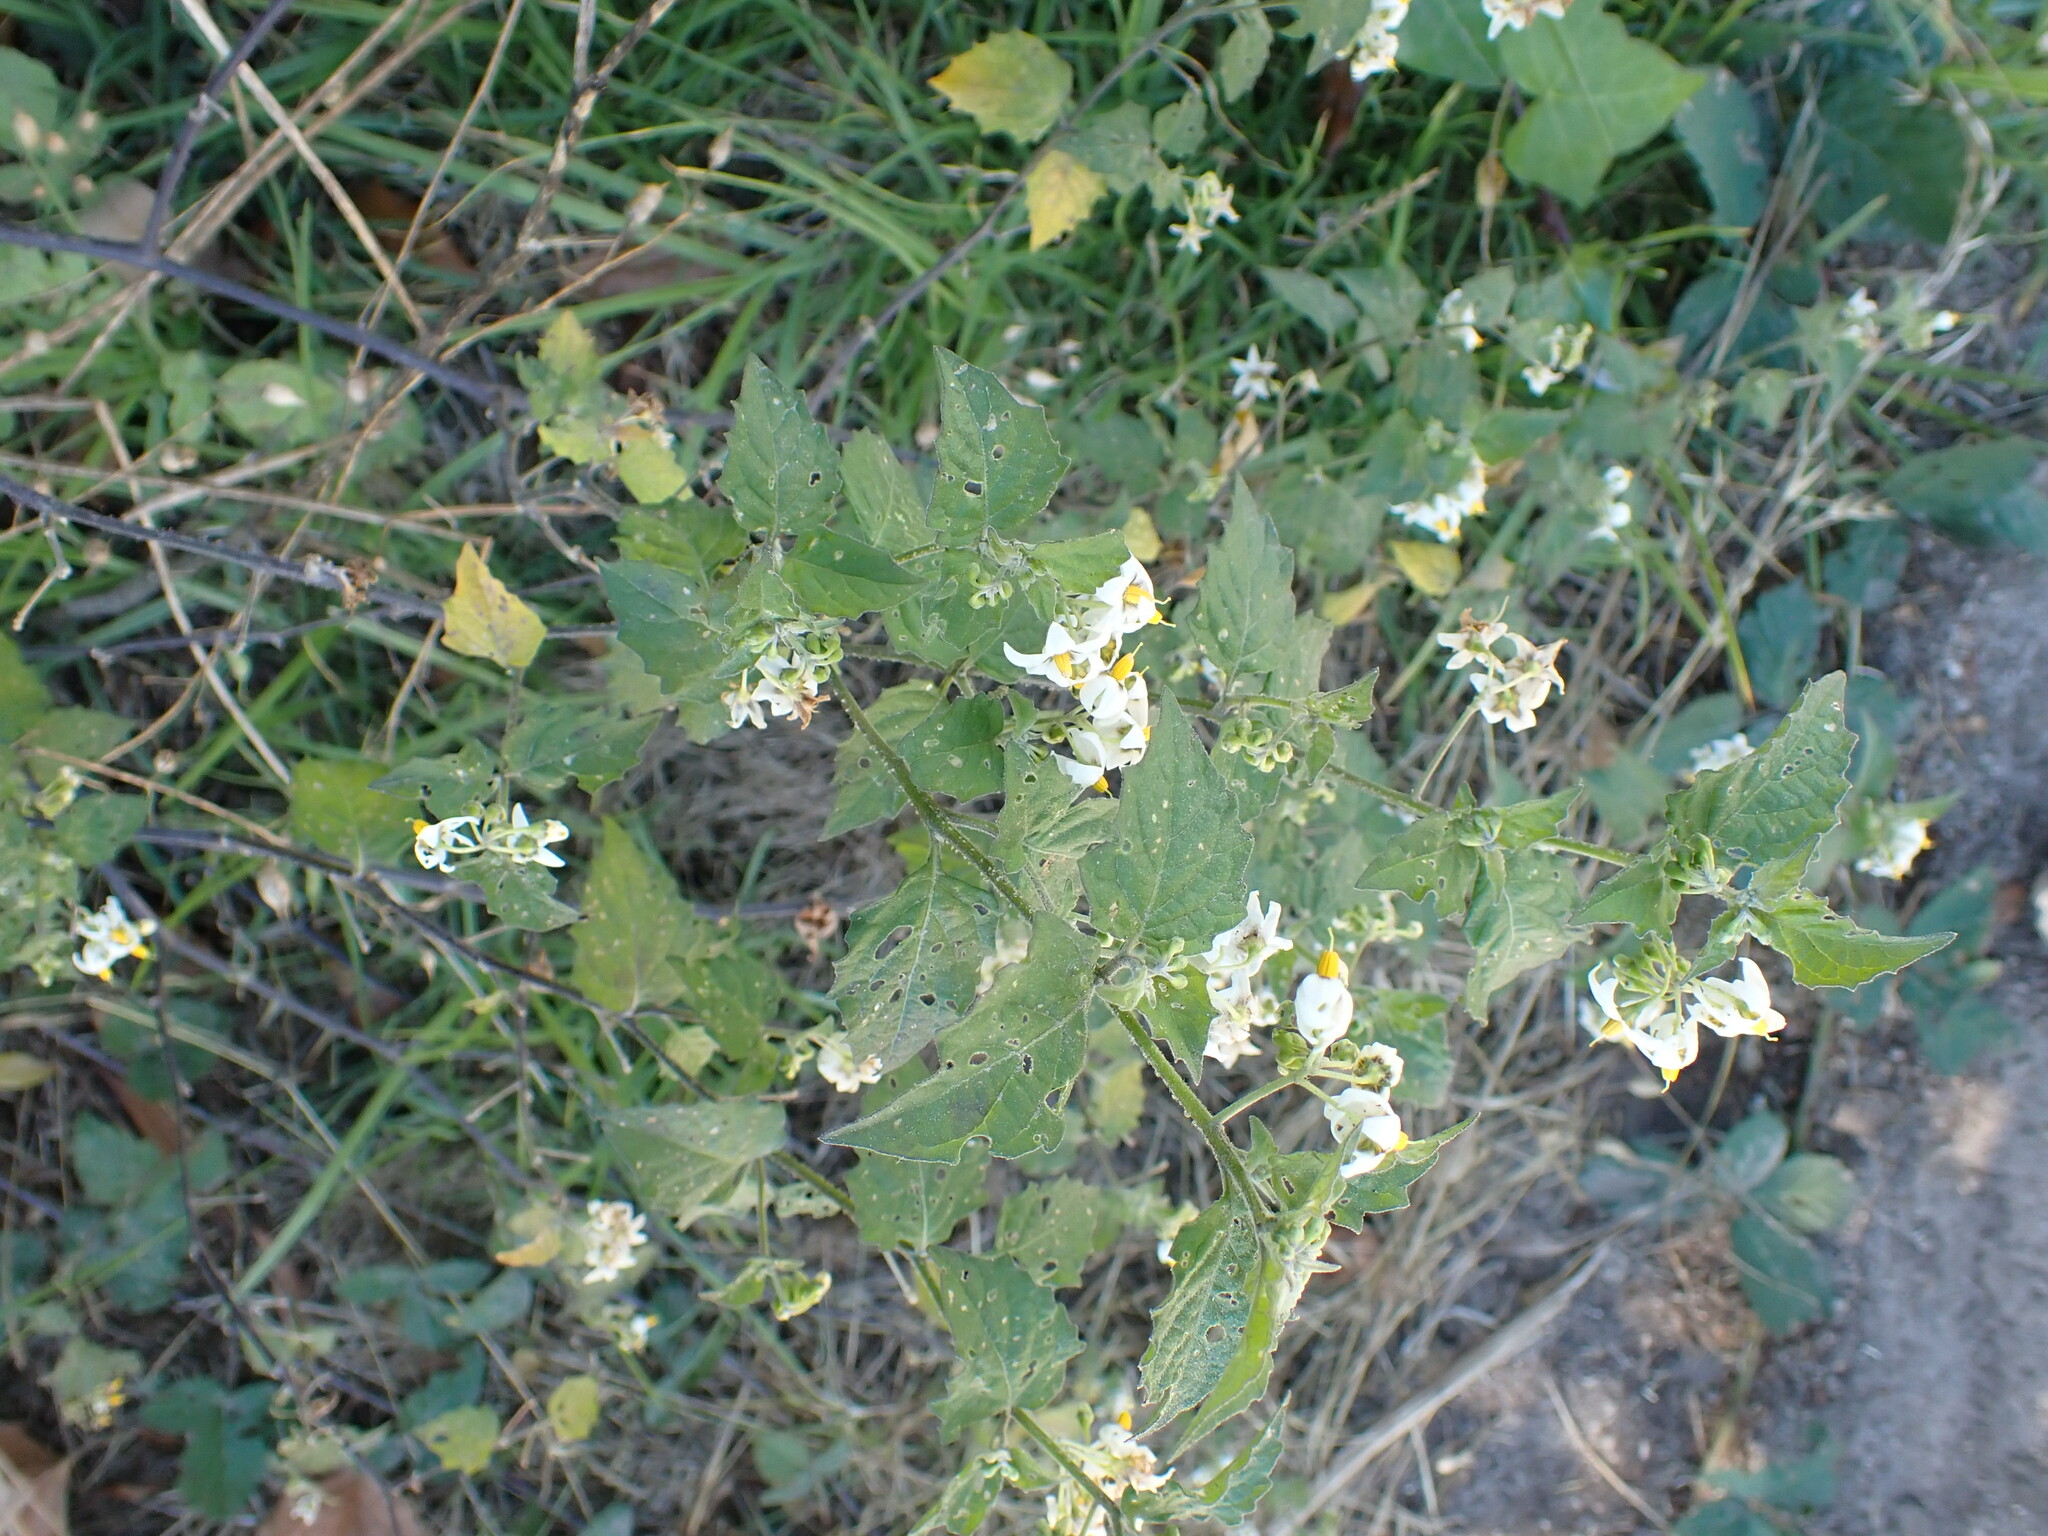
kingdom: Plantae
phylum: Tracheophyta
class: Magnoliopsida
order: Solanales
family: Solanaceae
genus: Solanum
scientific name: Solanum douglasii
